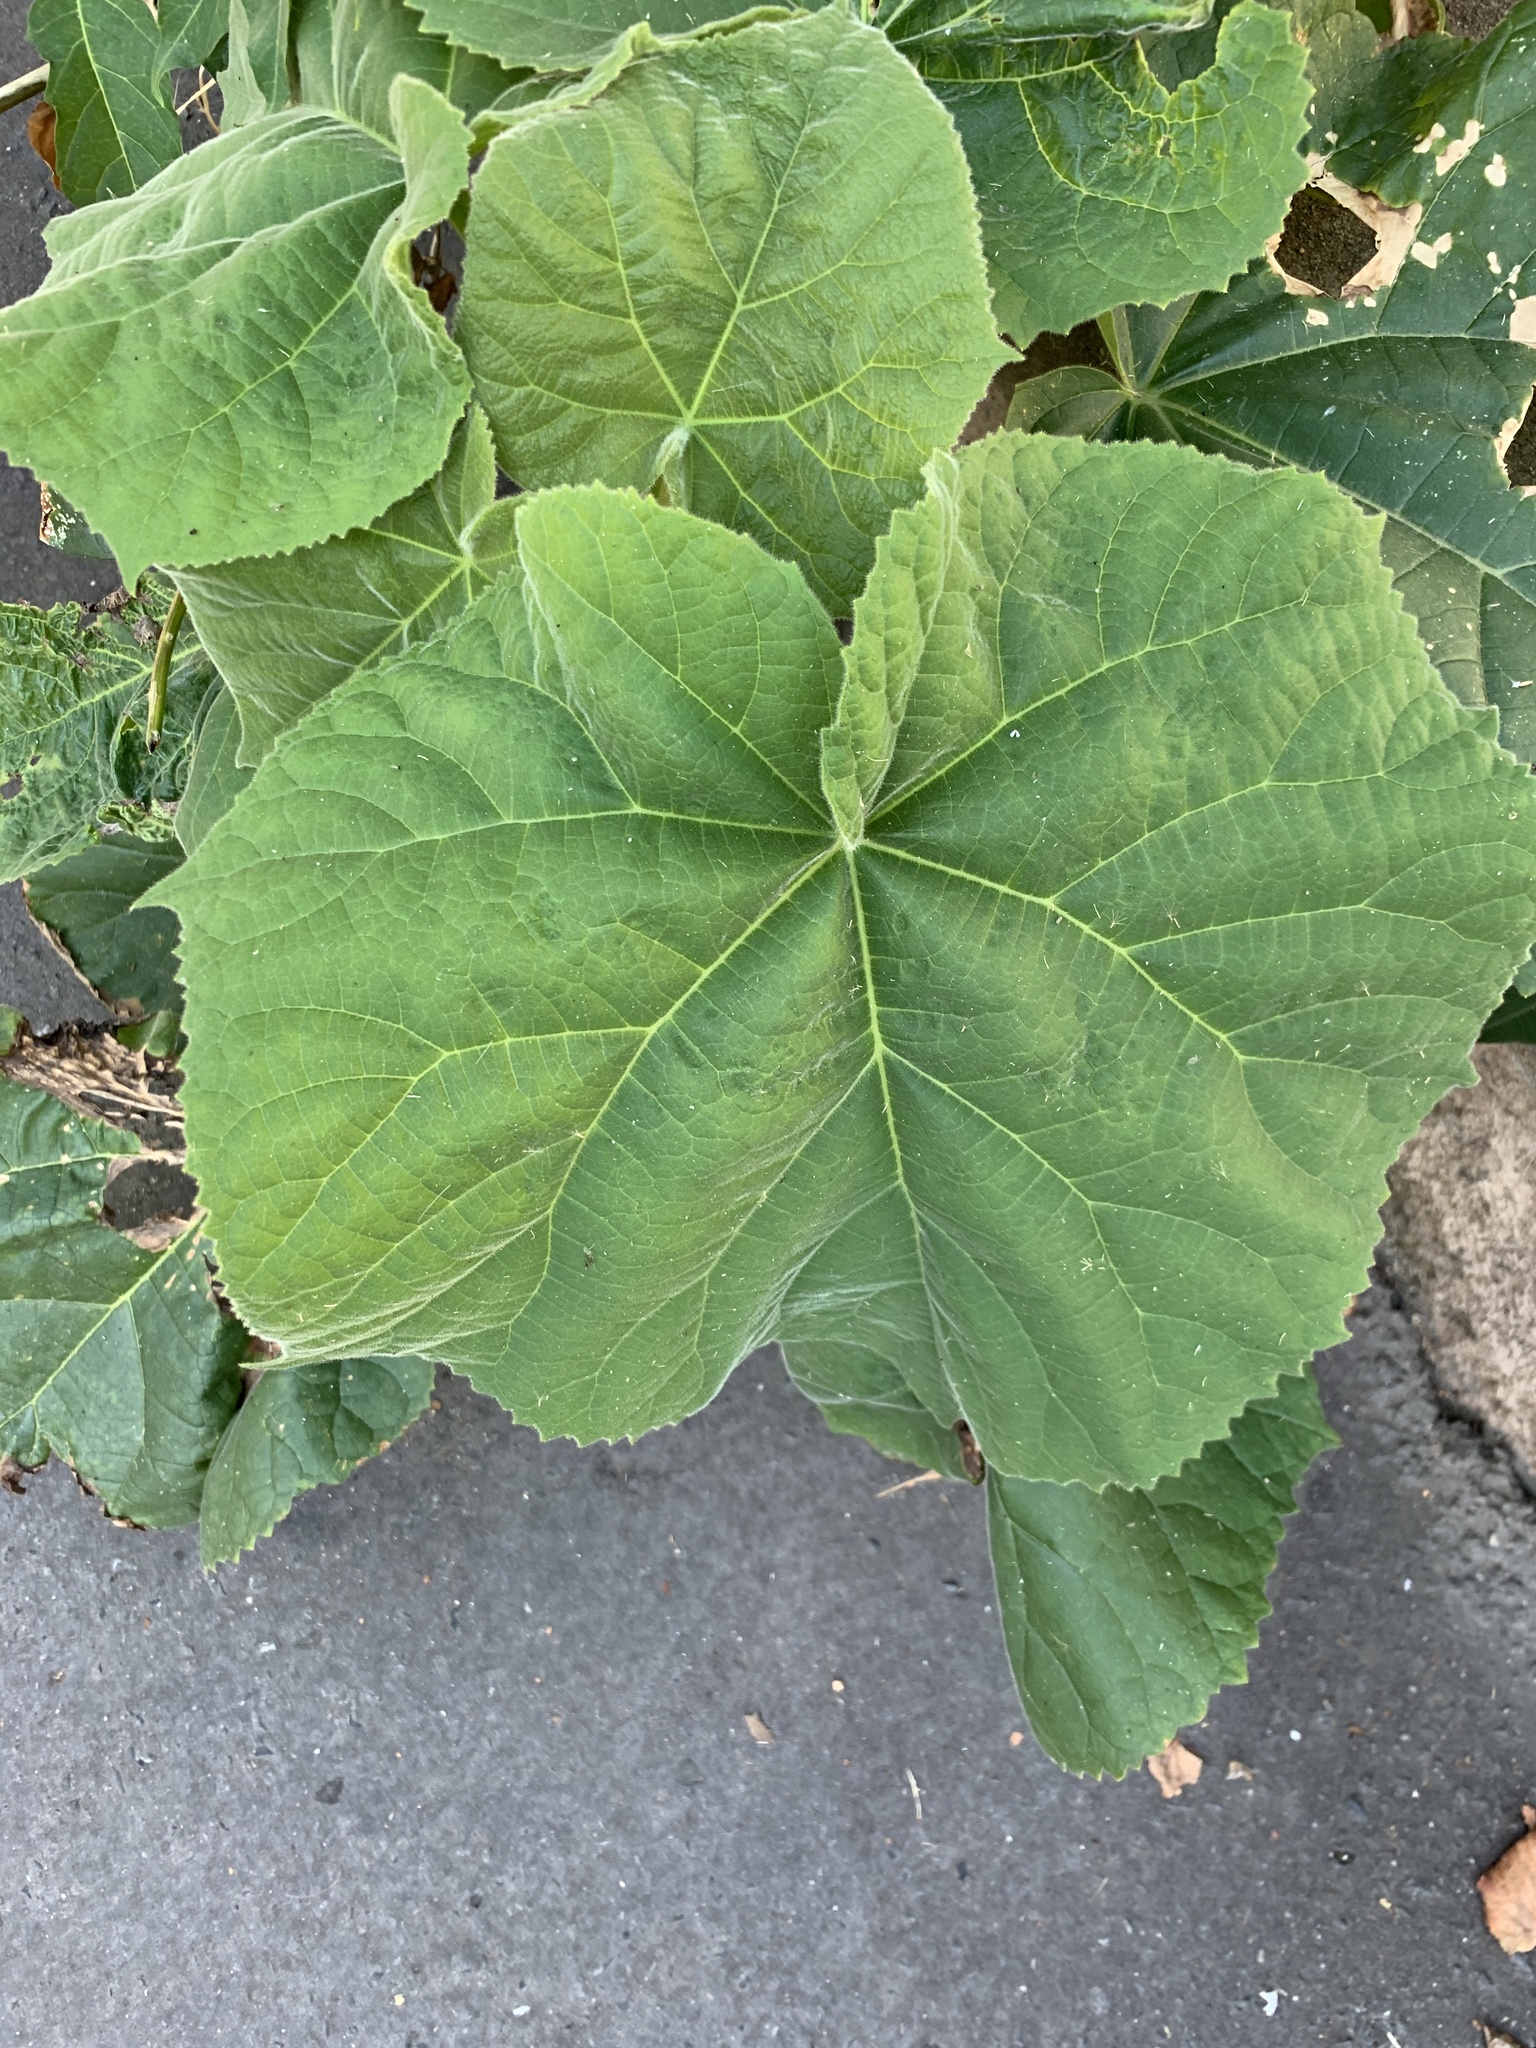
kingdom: Plantae
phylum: Tracheophyta
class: Magnoliopsida
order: Lamiales
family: Paulowniaceae
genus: Paulownia
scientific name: Paulownia tomentosa
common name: Foxglove-tree
